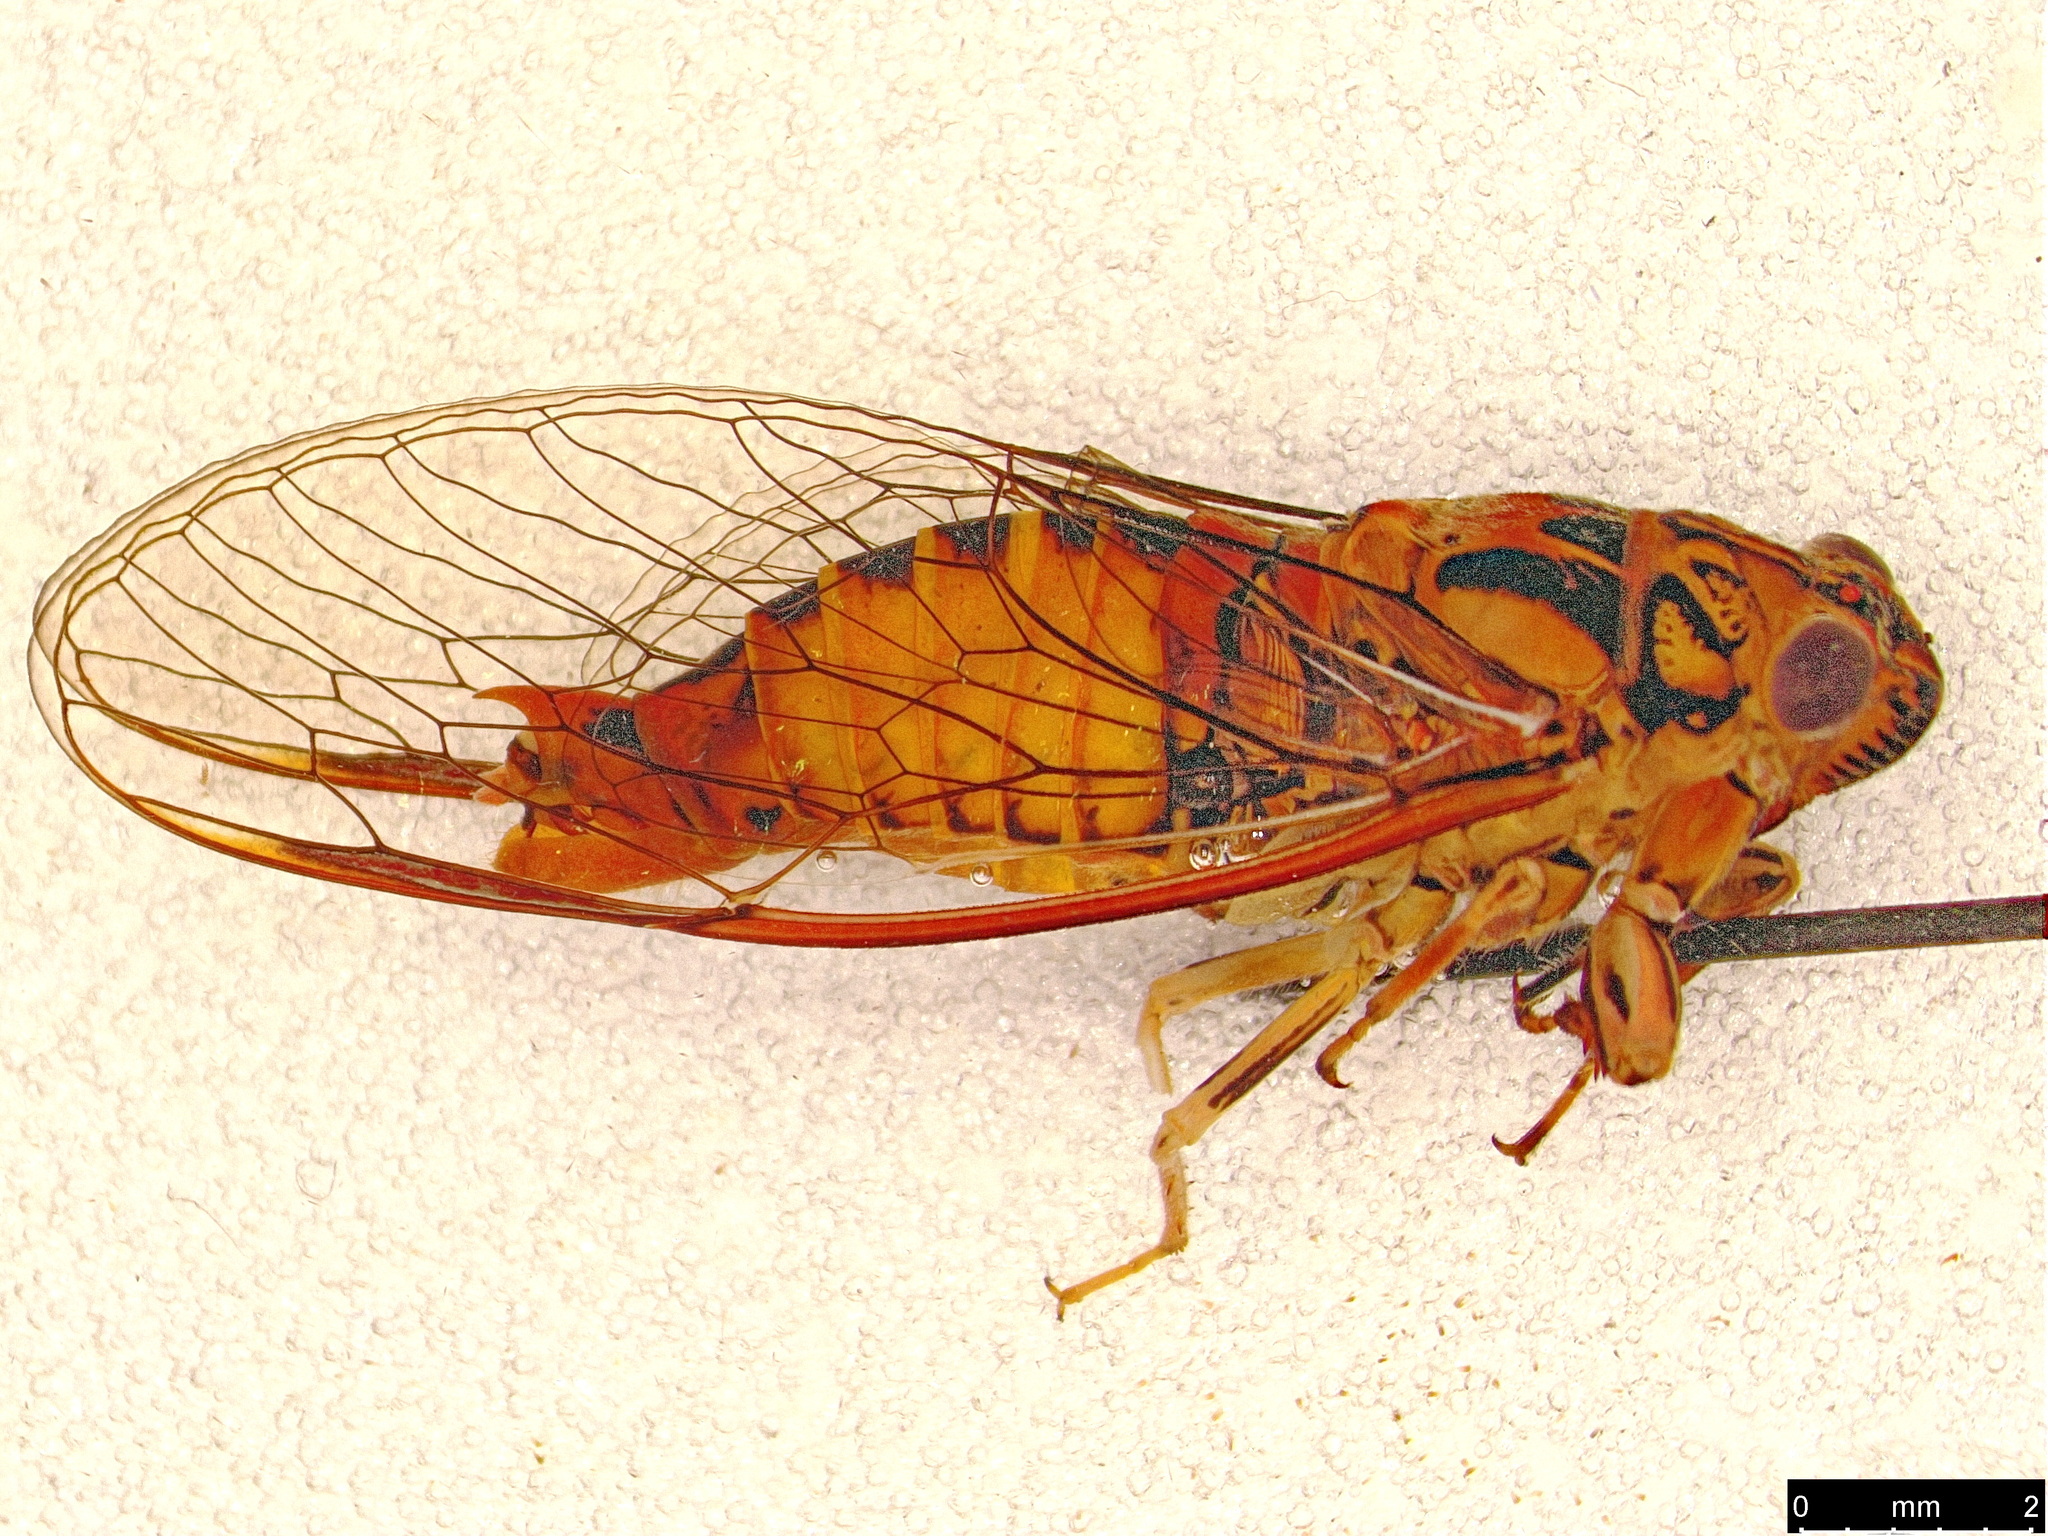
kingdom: Animalia
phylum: Arthropoda
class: Insecta
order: Hemiptera
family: Cicadidae
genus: Yoyetta
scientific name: Yoyetta celis
